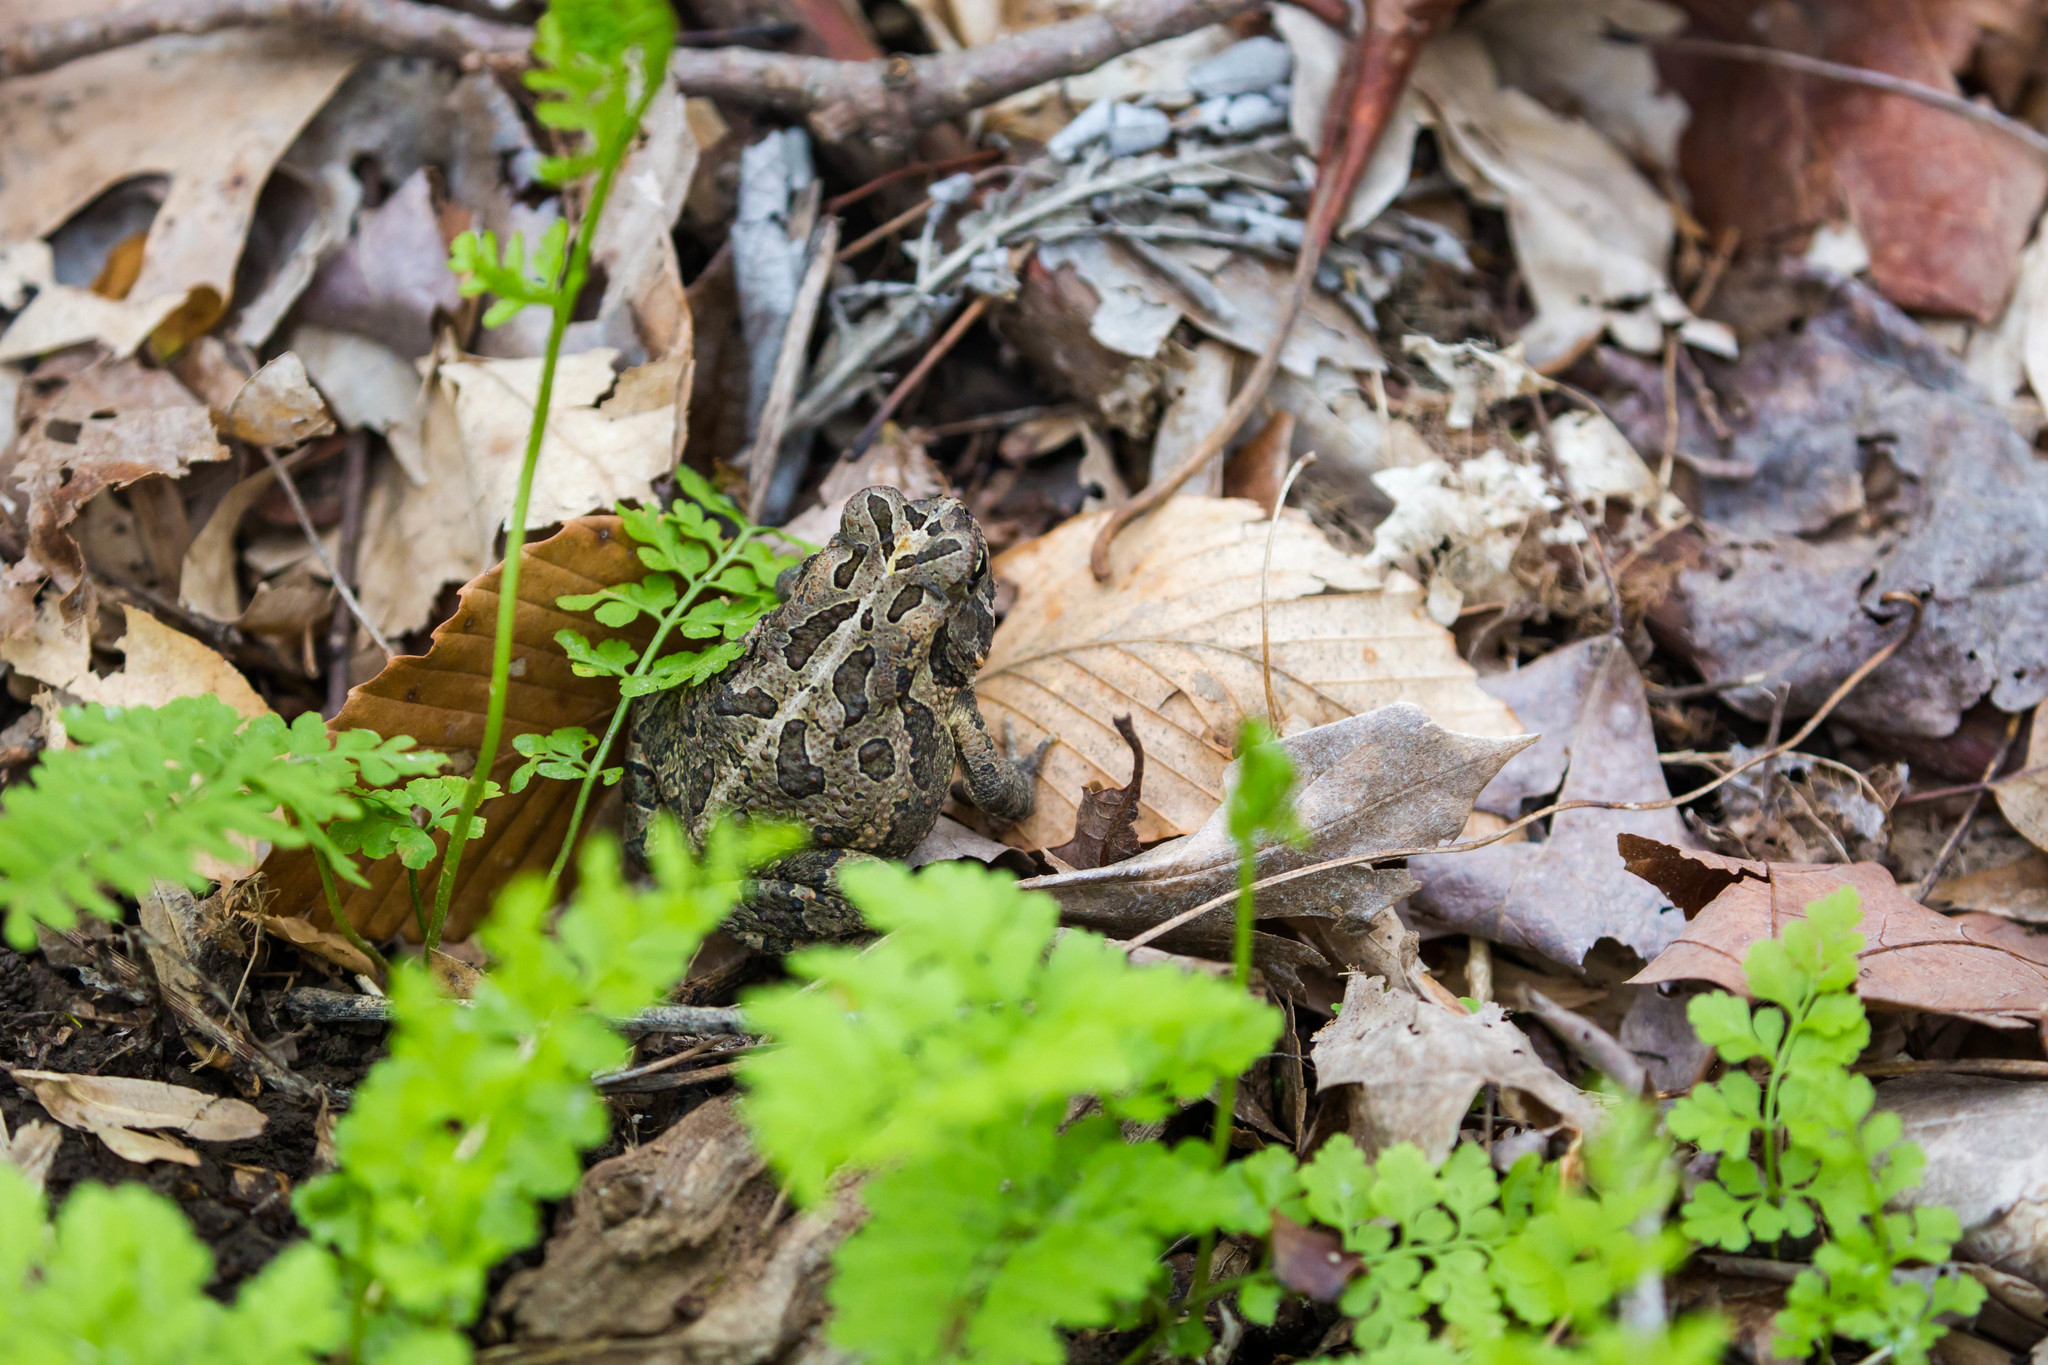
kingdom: Animalia
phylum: Chordata
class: Amphibia
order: Anura
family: Bufonidae
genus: Anaxyrus
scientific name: Anaxyrus fowleri
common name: Fowler's toad
